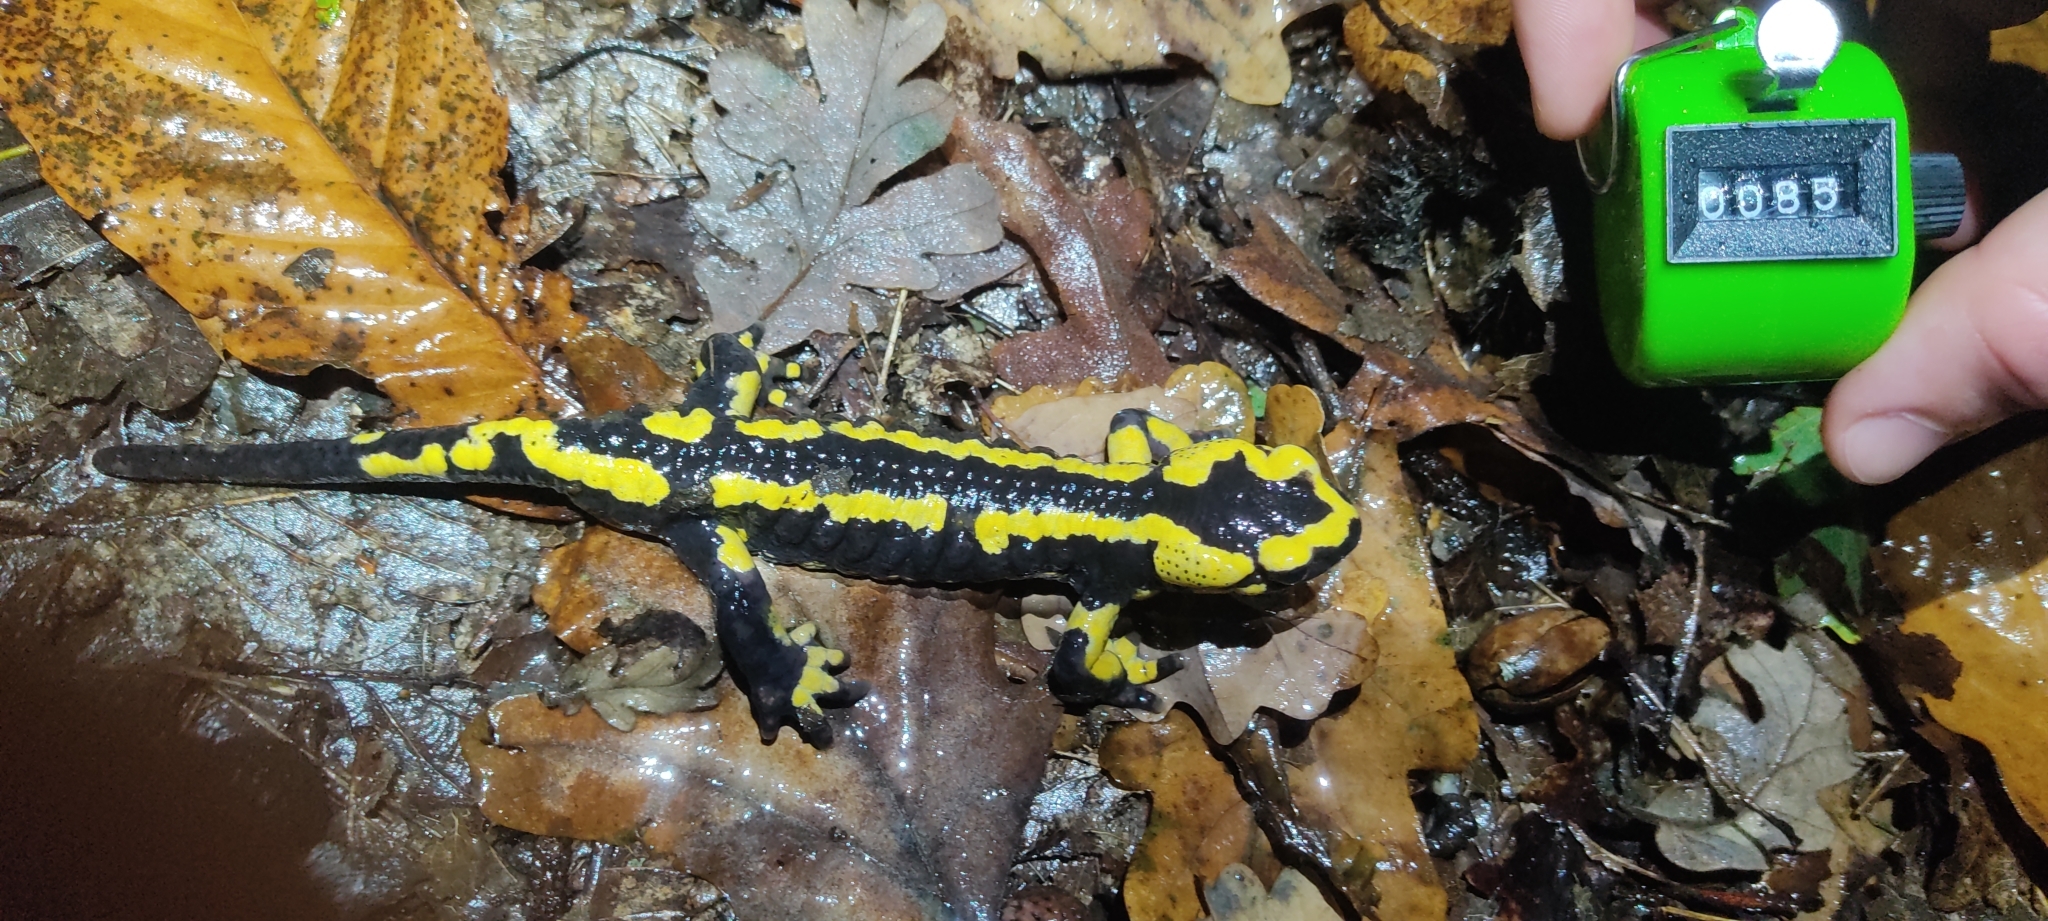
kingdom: Animalia
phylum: Chordata
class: Amphibia
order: Caudata
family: Salamandridae
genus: Salamandra
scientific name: Salamandra salamandra
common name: Fire salamander
